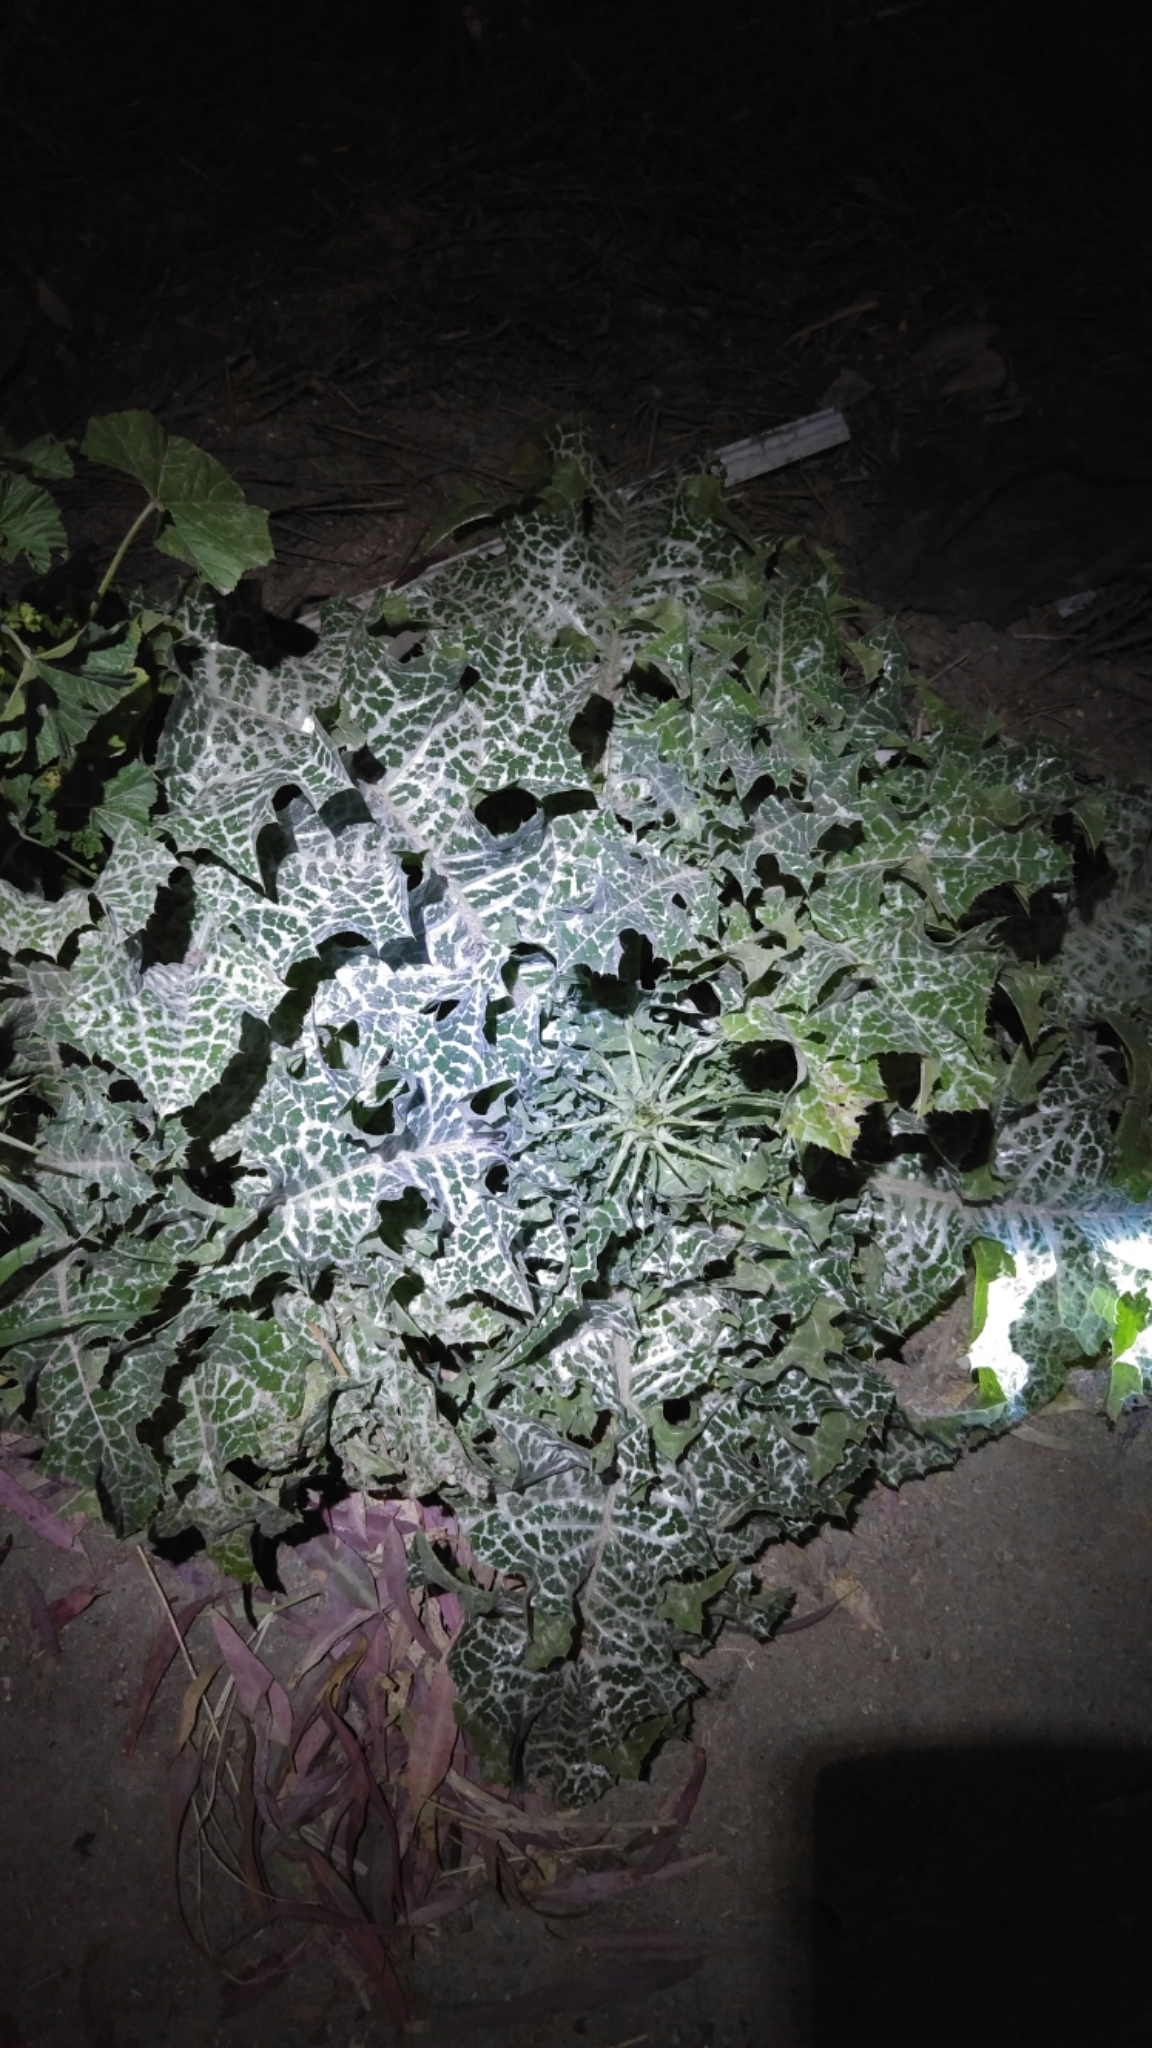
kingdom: Plantae
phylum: Tracheophyta
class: Magnoliopsida
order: Asterales
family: Asteraceae
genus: Silybum
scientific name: Silybum marianum
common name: Milk thistle
